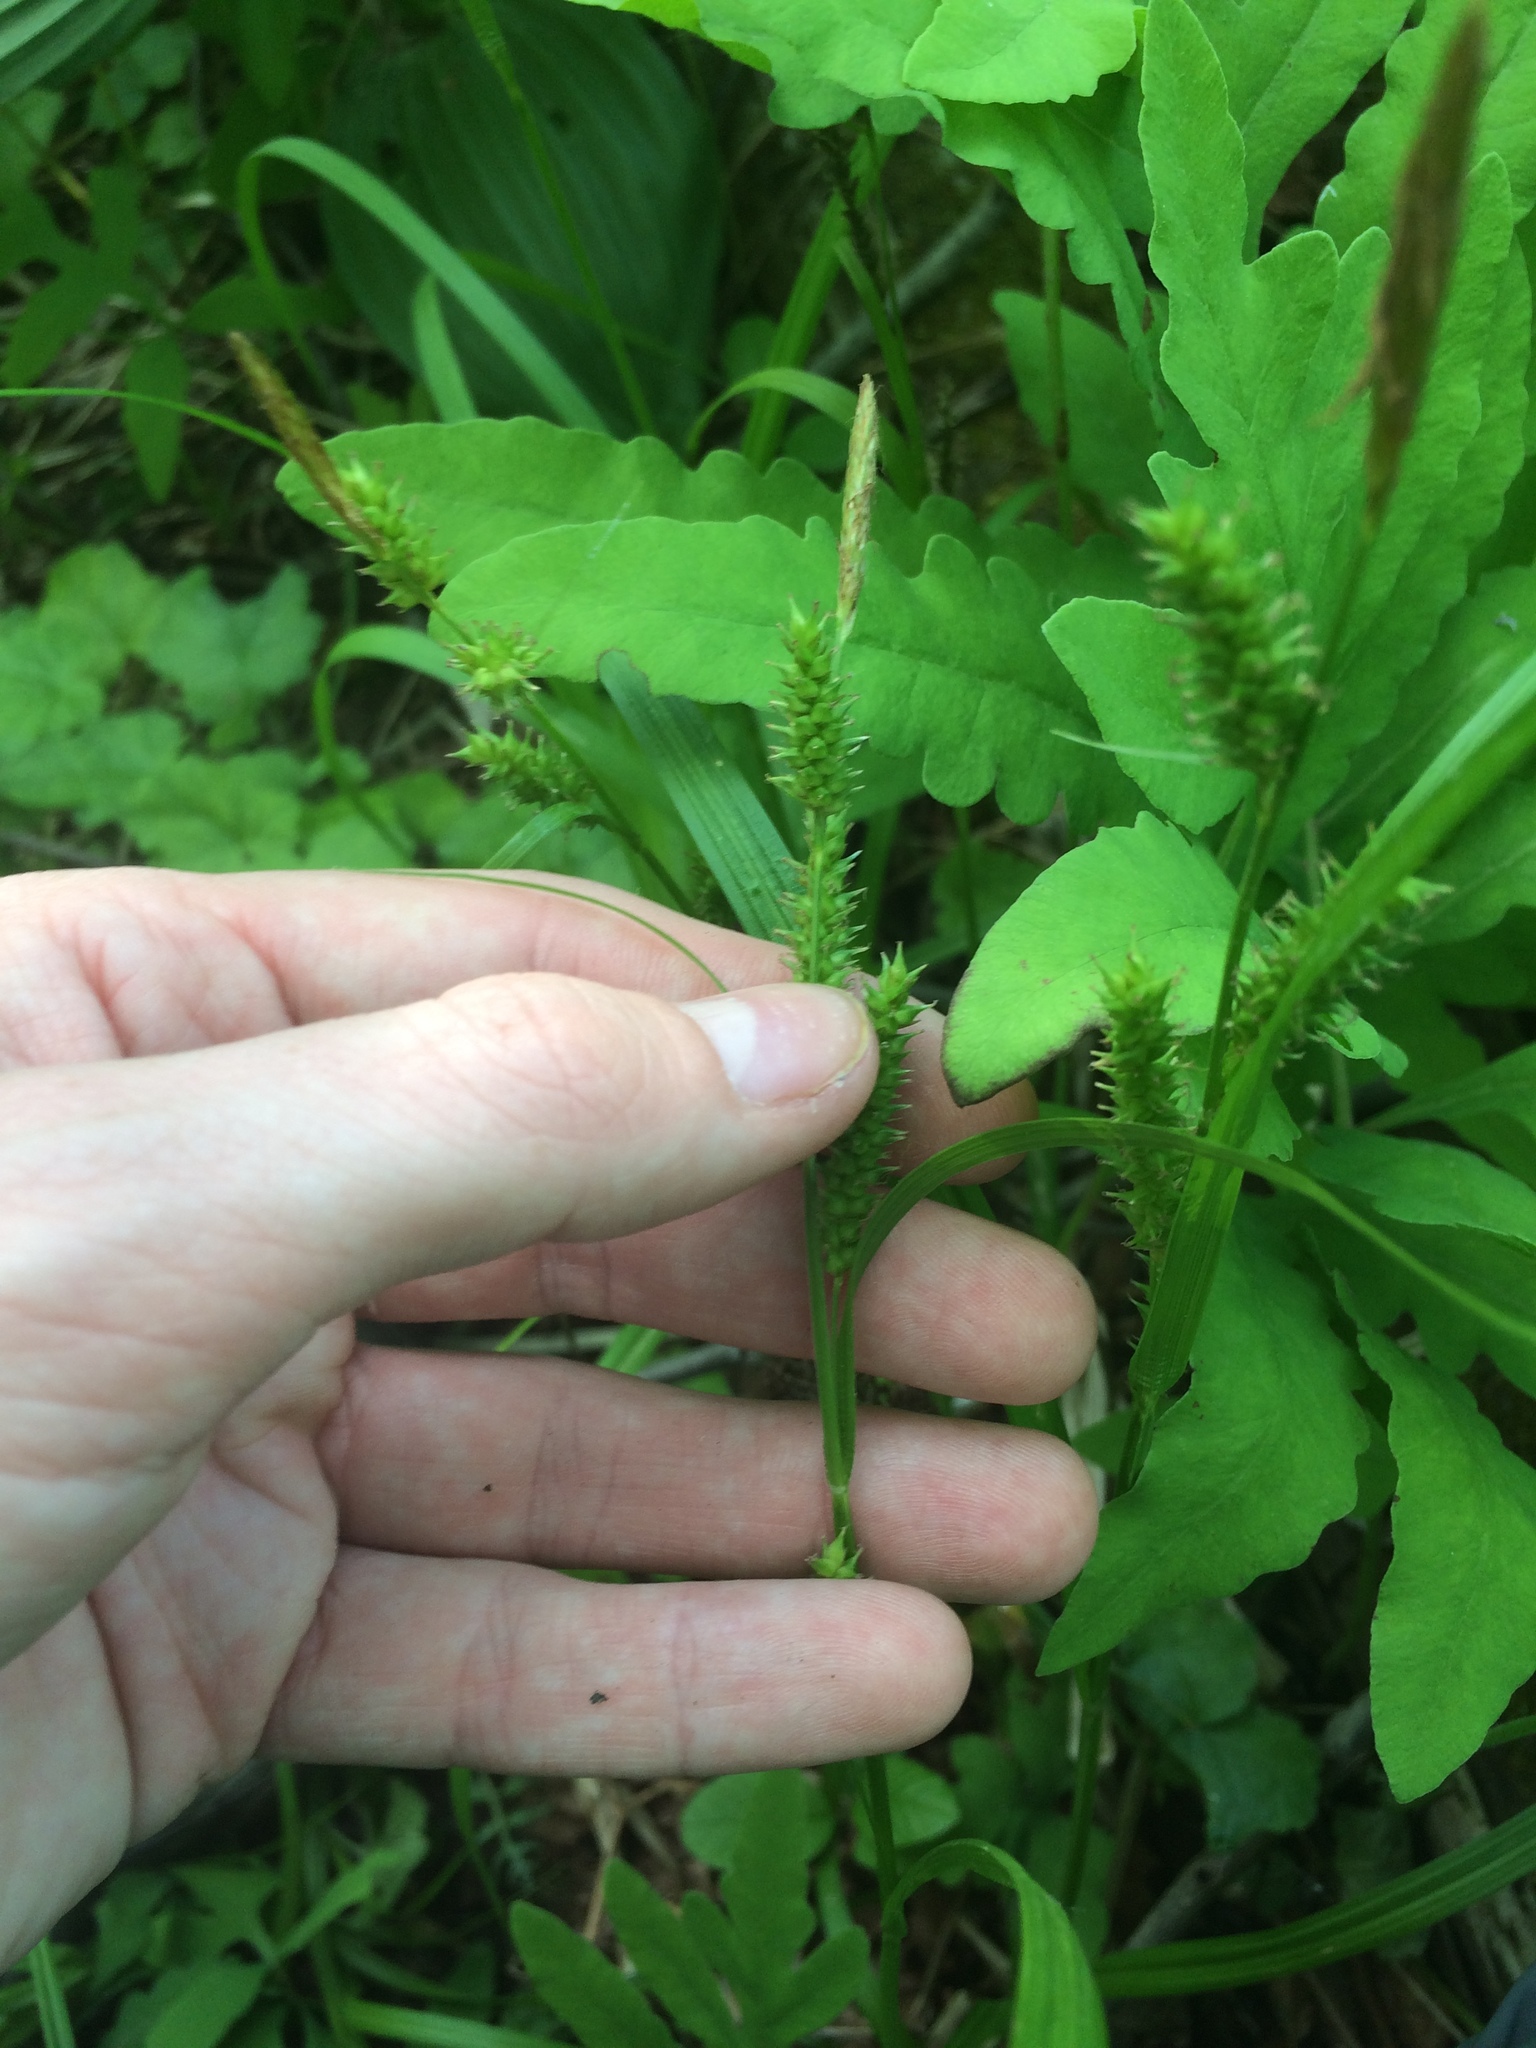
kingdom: Plantae
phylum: Tracheophyta
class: Liliopsida
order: Poales
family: Cyperaceae
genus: Carex
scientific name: Carex scabrata
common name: Eastern rough sedge
